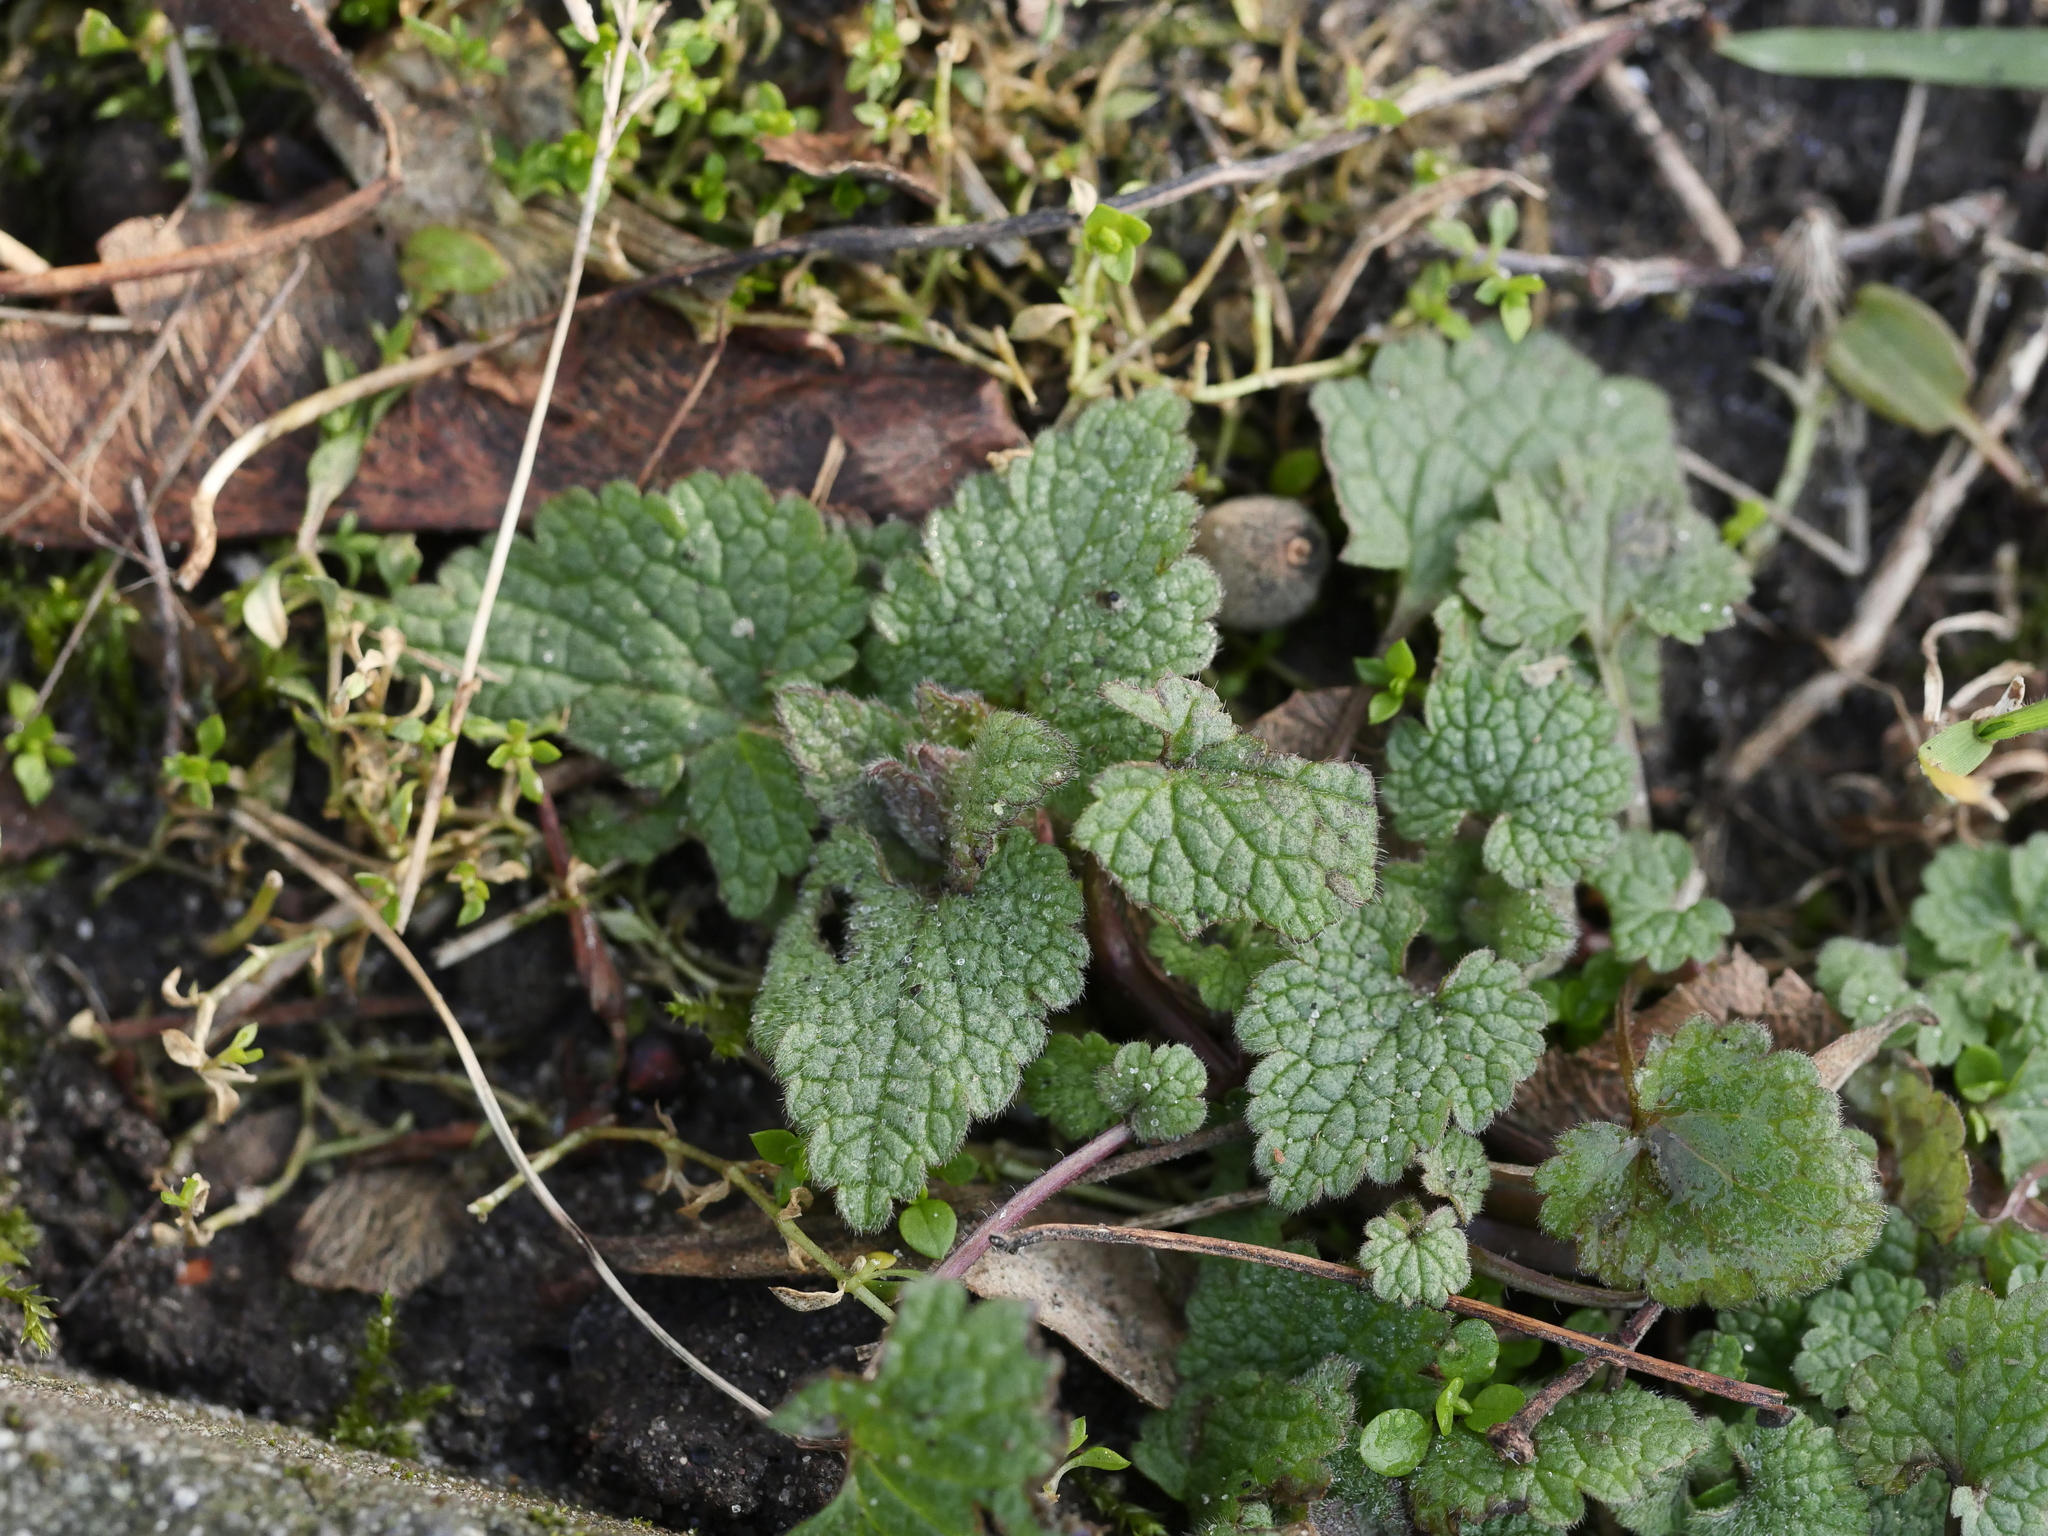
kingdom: Plantae
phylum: Tracheophyta
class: Magnoliopsida
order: Lamiales
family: Lamiaceae
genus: Lamium
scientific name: Lamium purpureum
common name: Red dead-nettle
